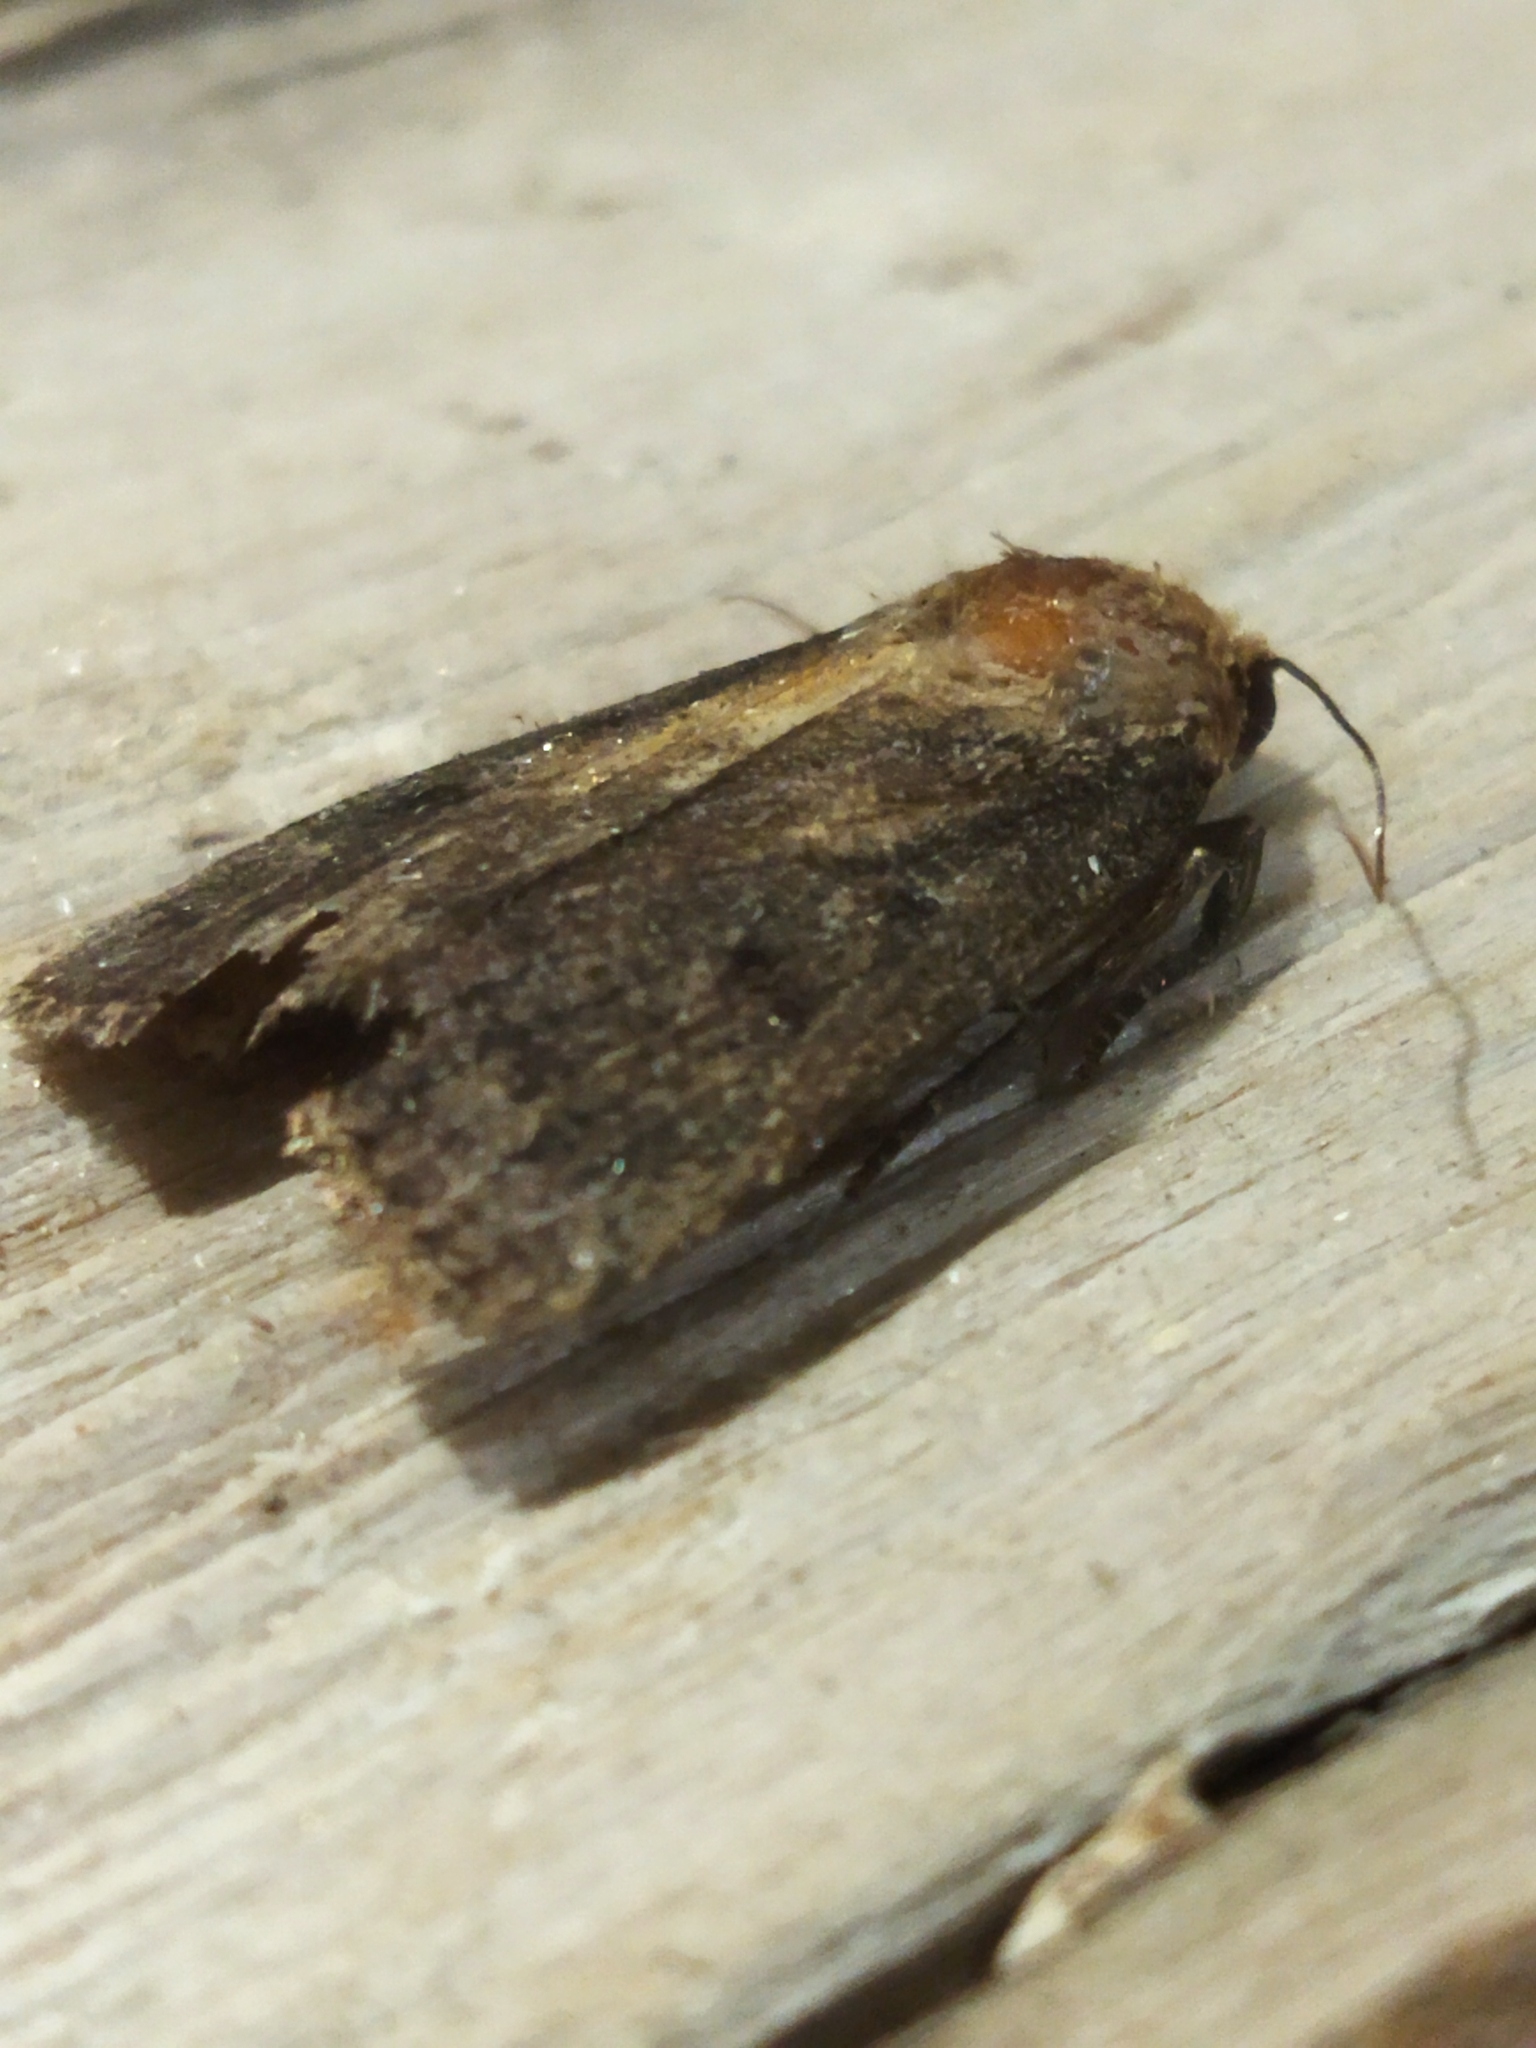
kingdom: Animalia
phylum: Arthropoda
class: Insecta
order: Lepidoptera
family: Noctuidae
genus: Amphipyra
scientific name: Amphipyra livida
